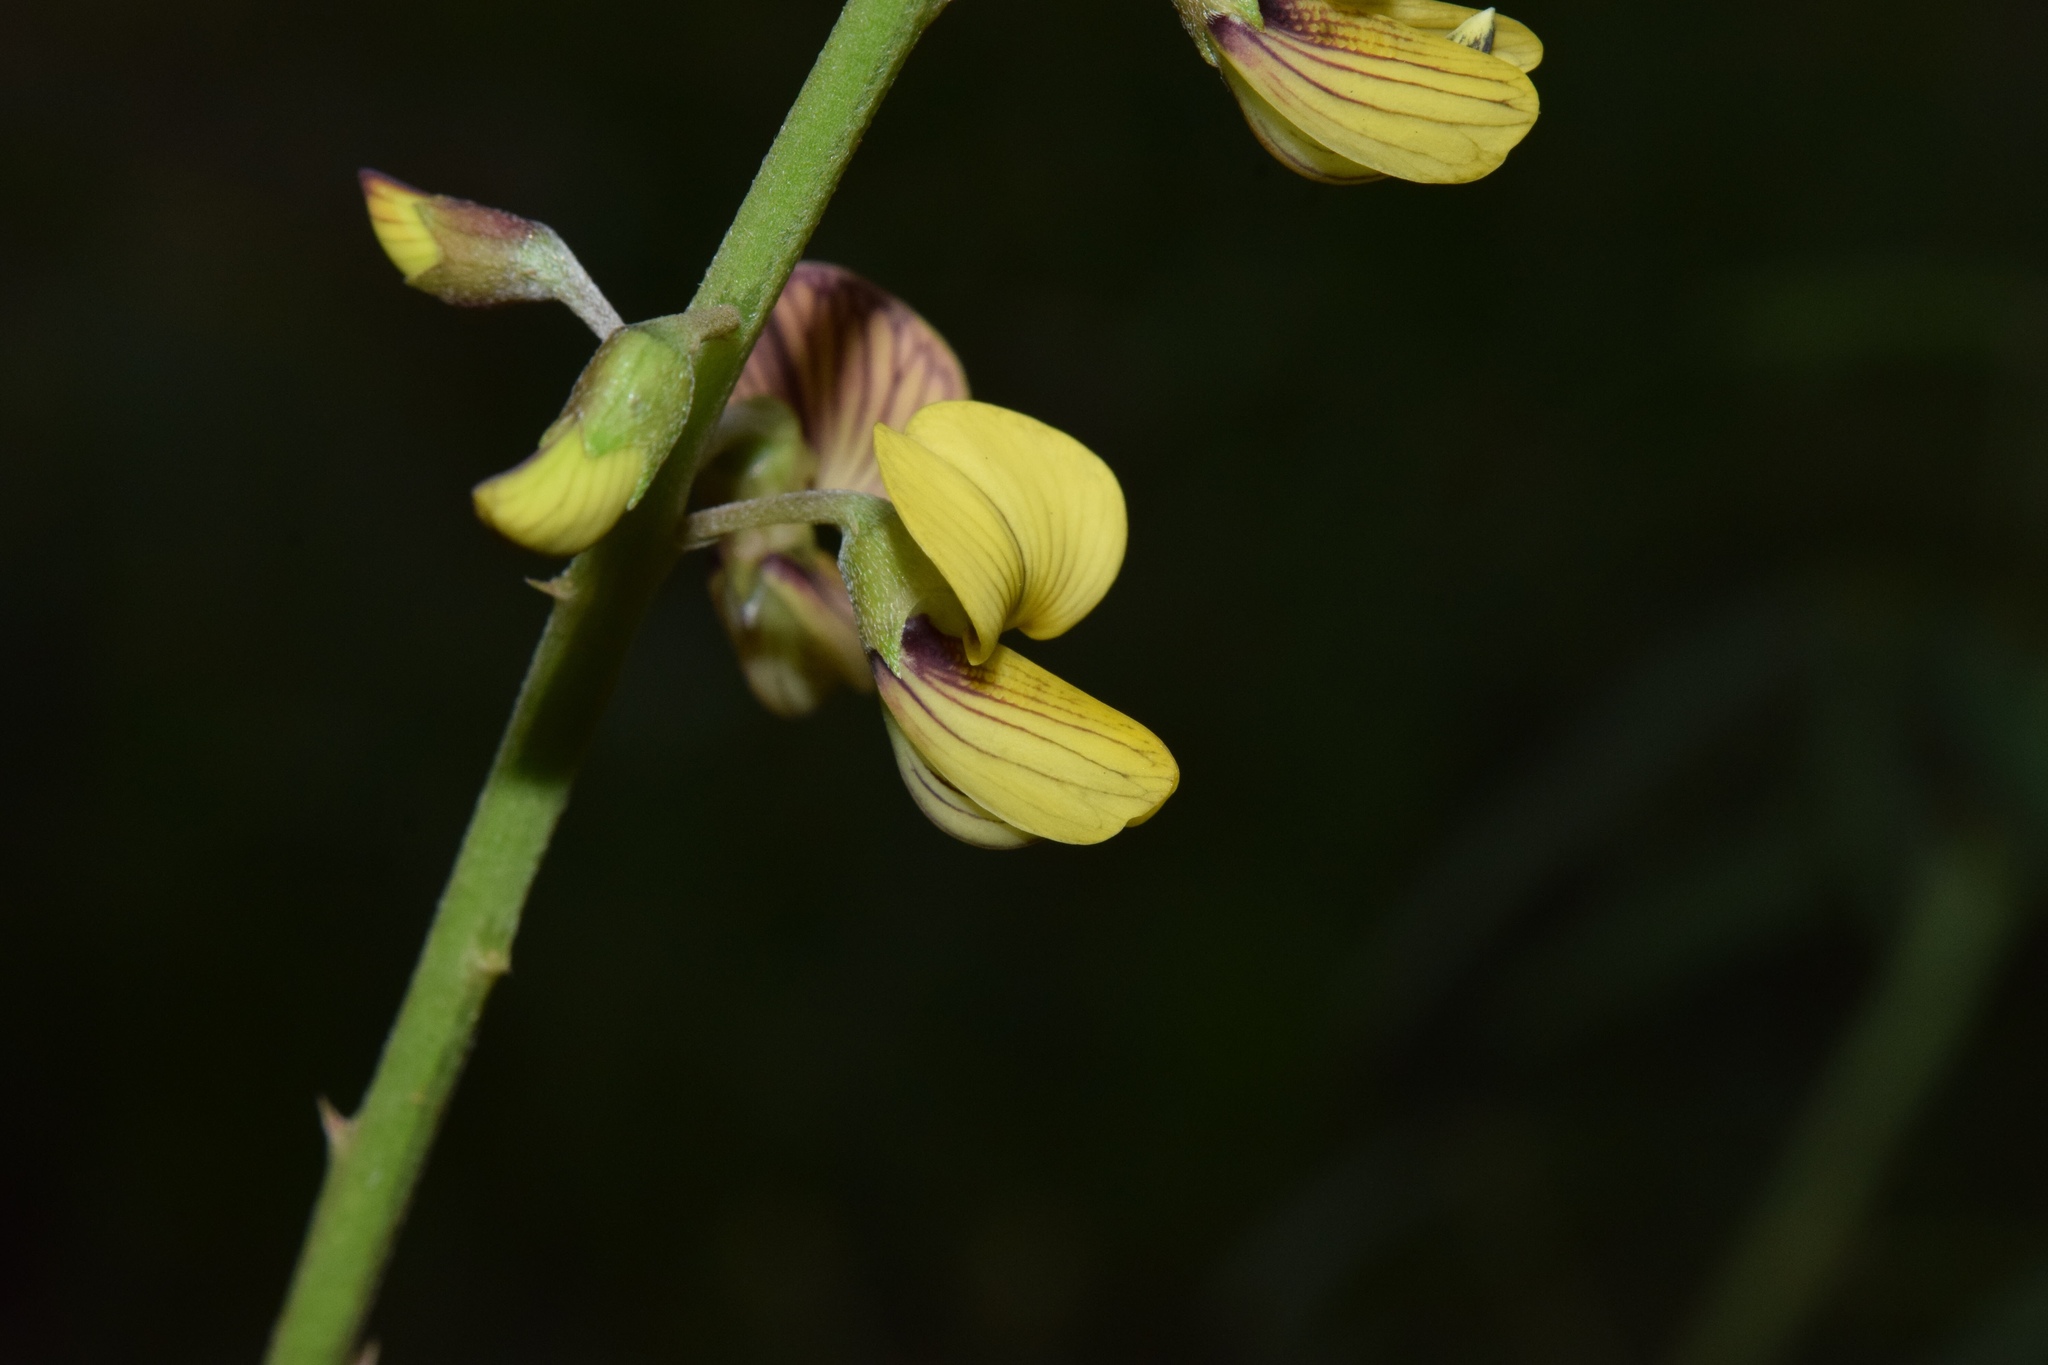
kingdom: Plantae
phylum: Tracheophyta
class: Magnoliopsida
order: Fabales
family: Fabaceae
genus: Crotalaria
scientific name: Crotalaria lanceolata
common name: Lanceleaf rattlebox
